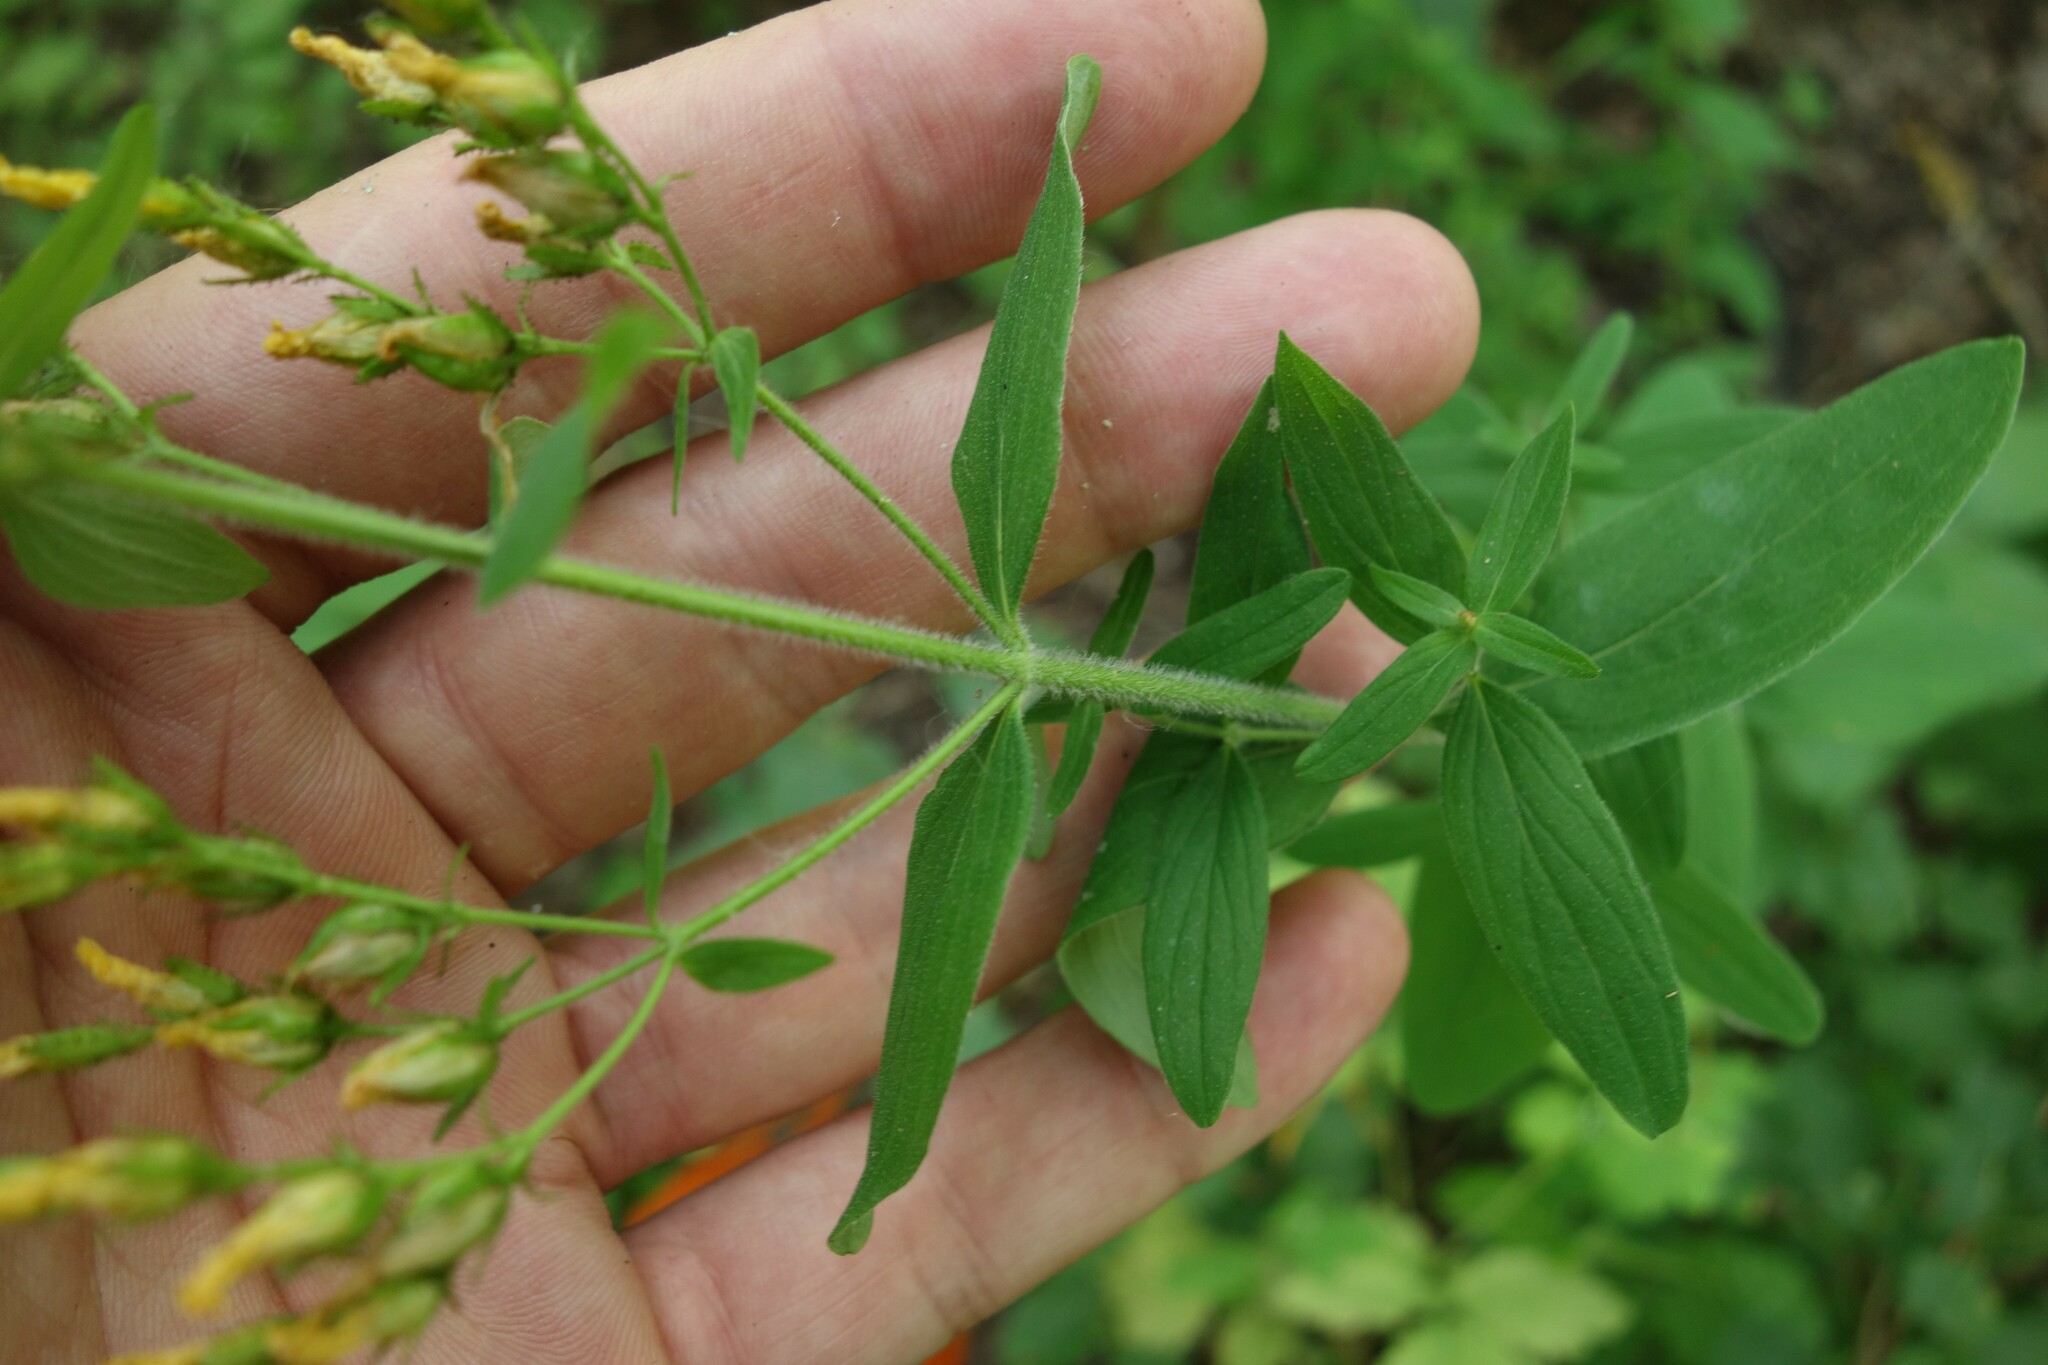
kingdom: Plantae
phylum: Tracheophyta
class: Magnoliopsida
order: Malpighiales
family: Hypericaceae
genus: Hypericum
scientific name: Hypericum hirsutum
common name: Hairy st. john's-wort
